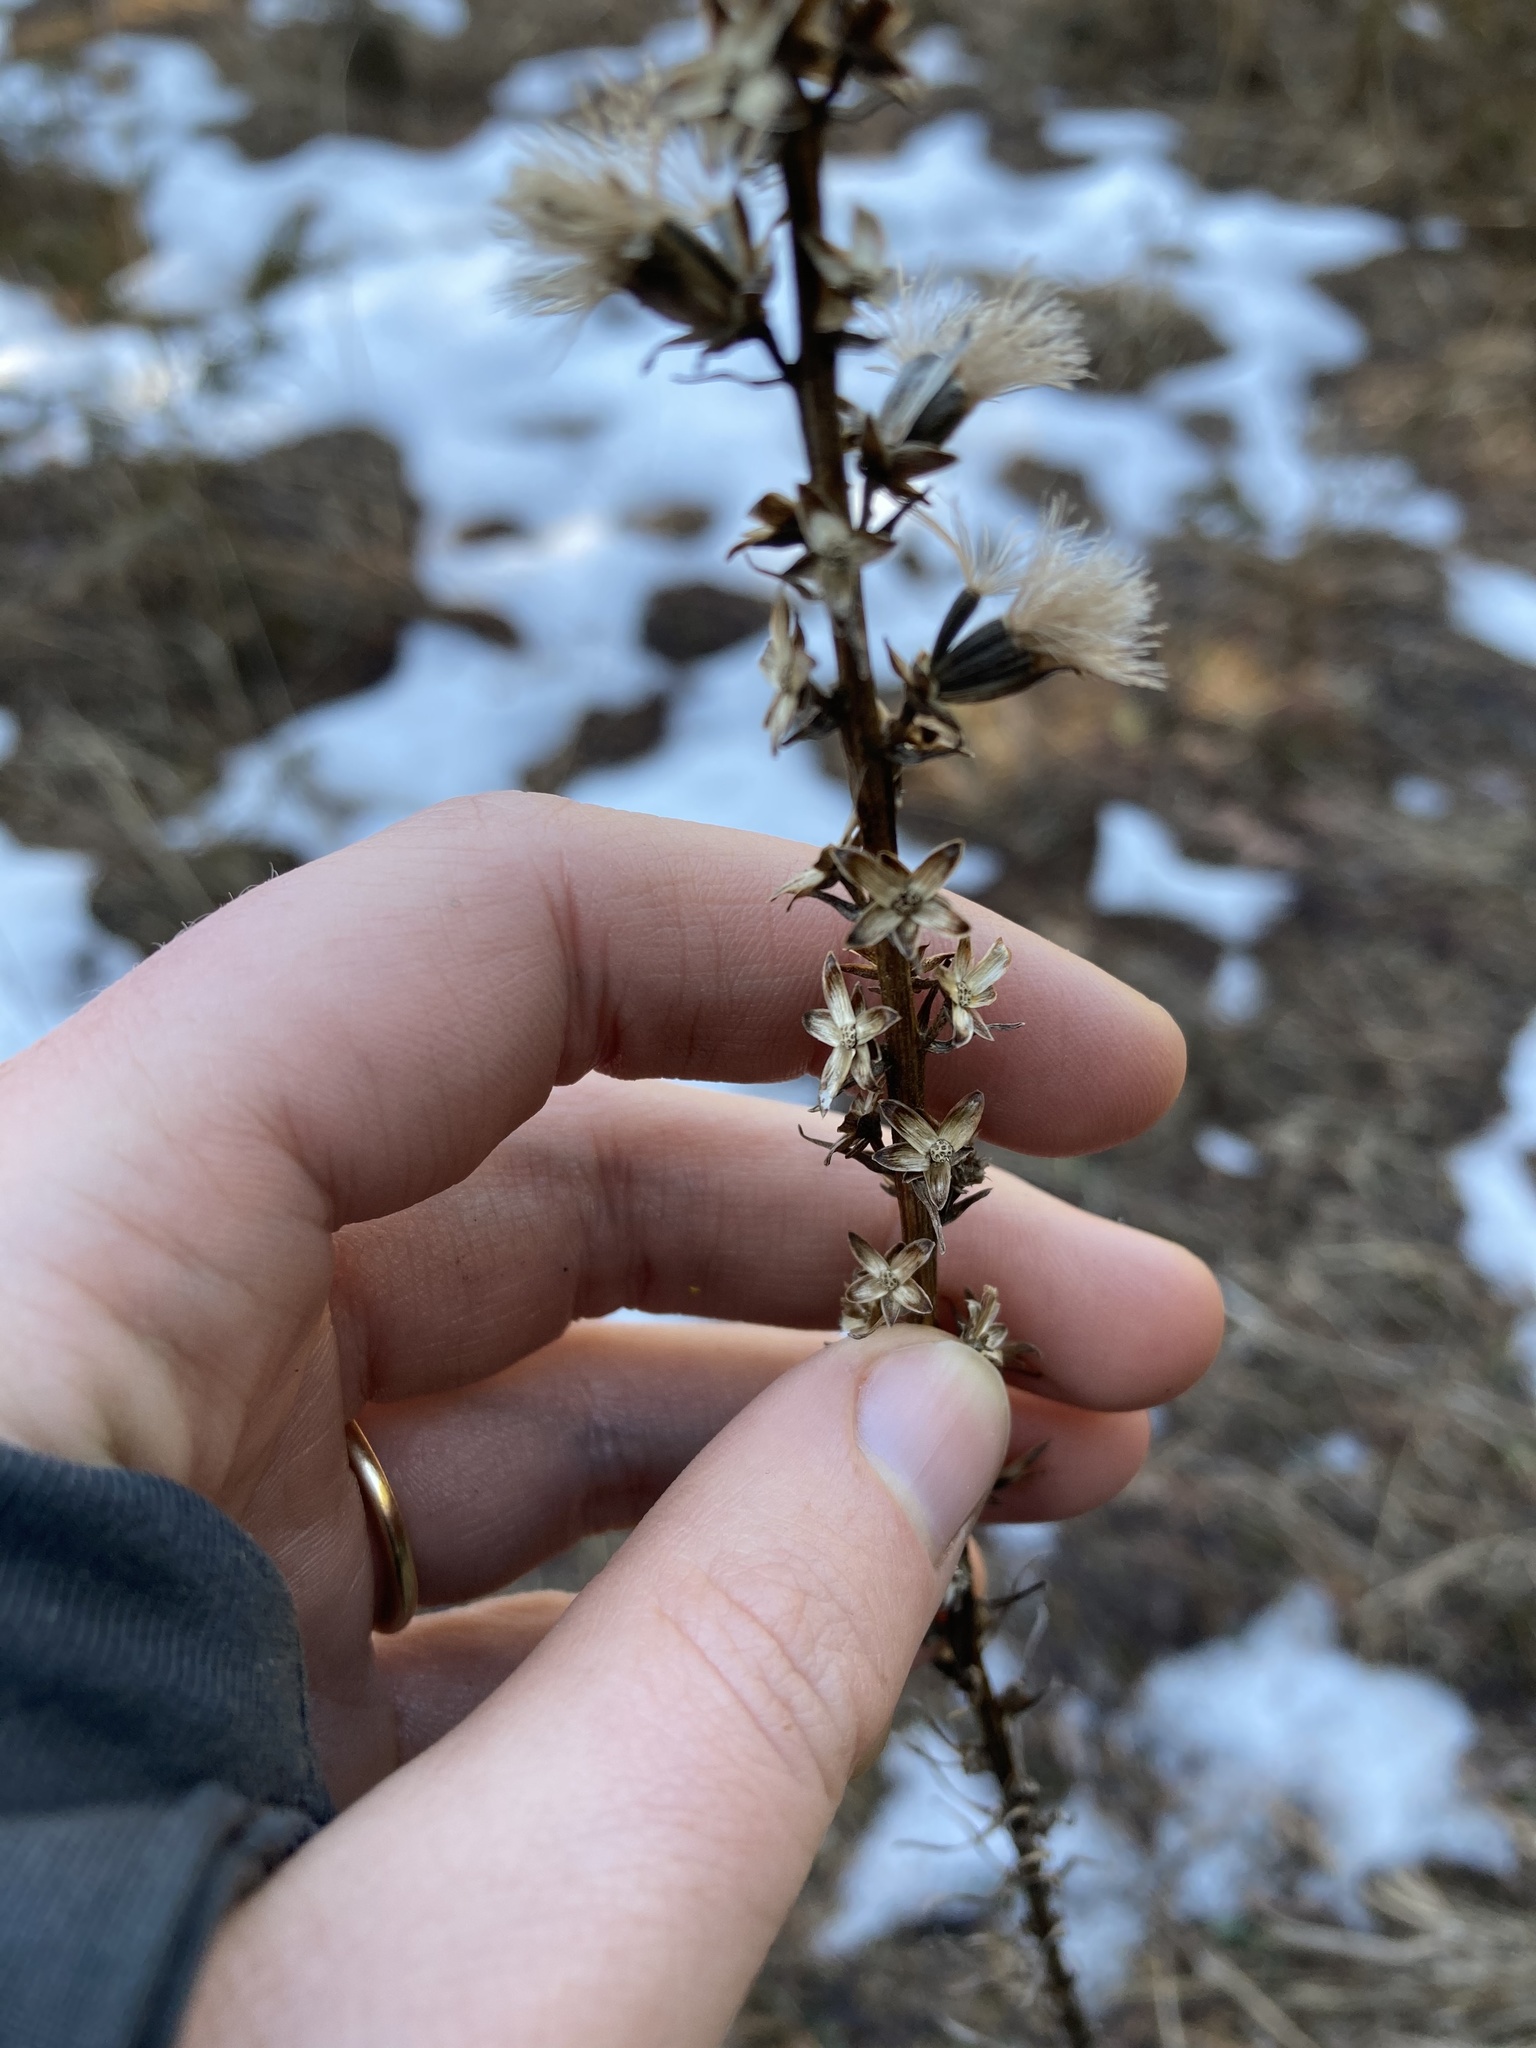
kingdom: Plantae
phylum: Tracheophyta
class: Magnoliopsida
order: Asterales
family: Asteraceae
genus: Liatris
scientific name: Liatris spicata
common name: Florist gayfeather
